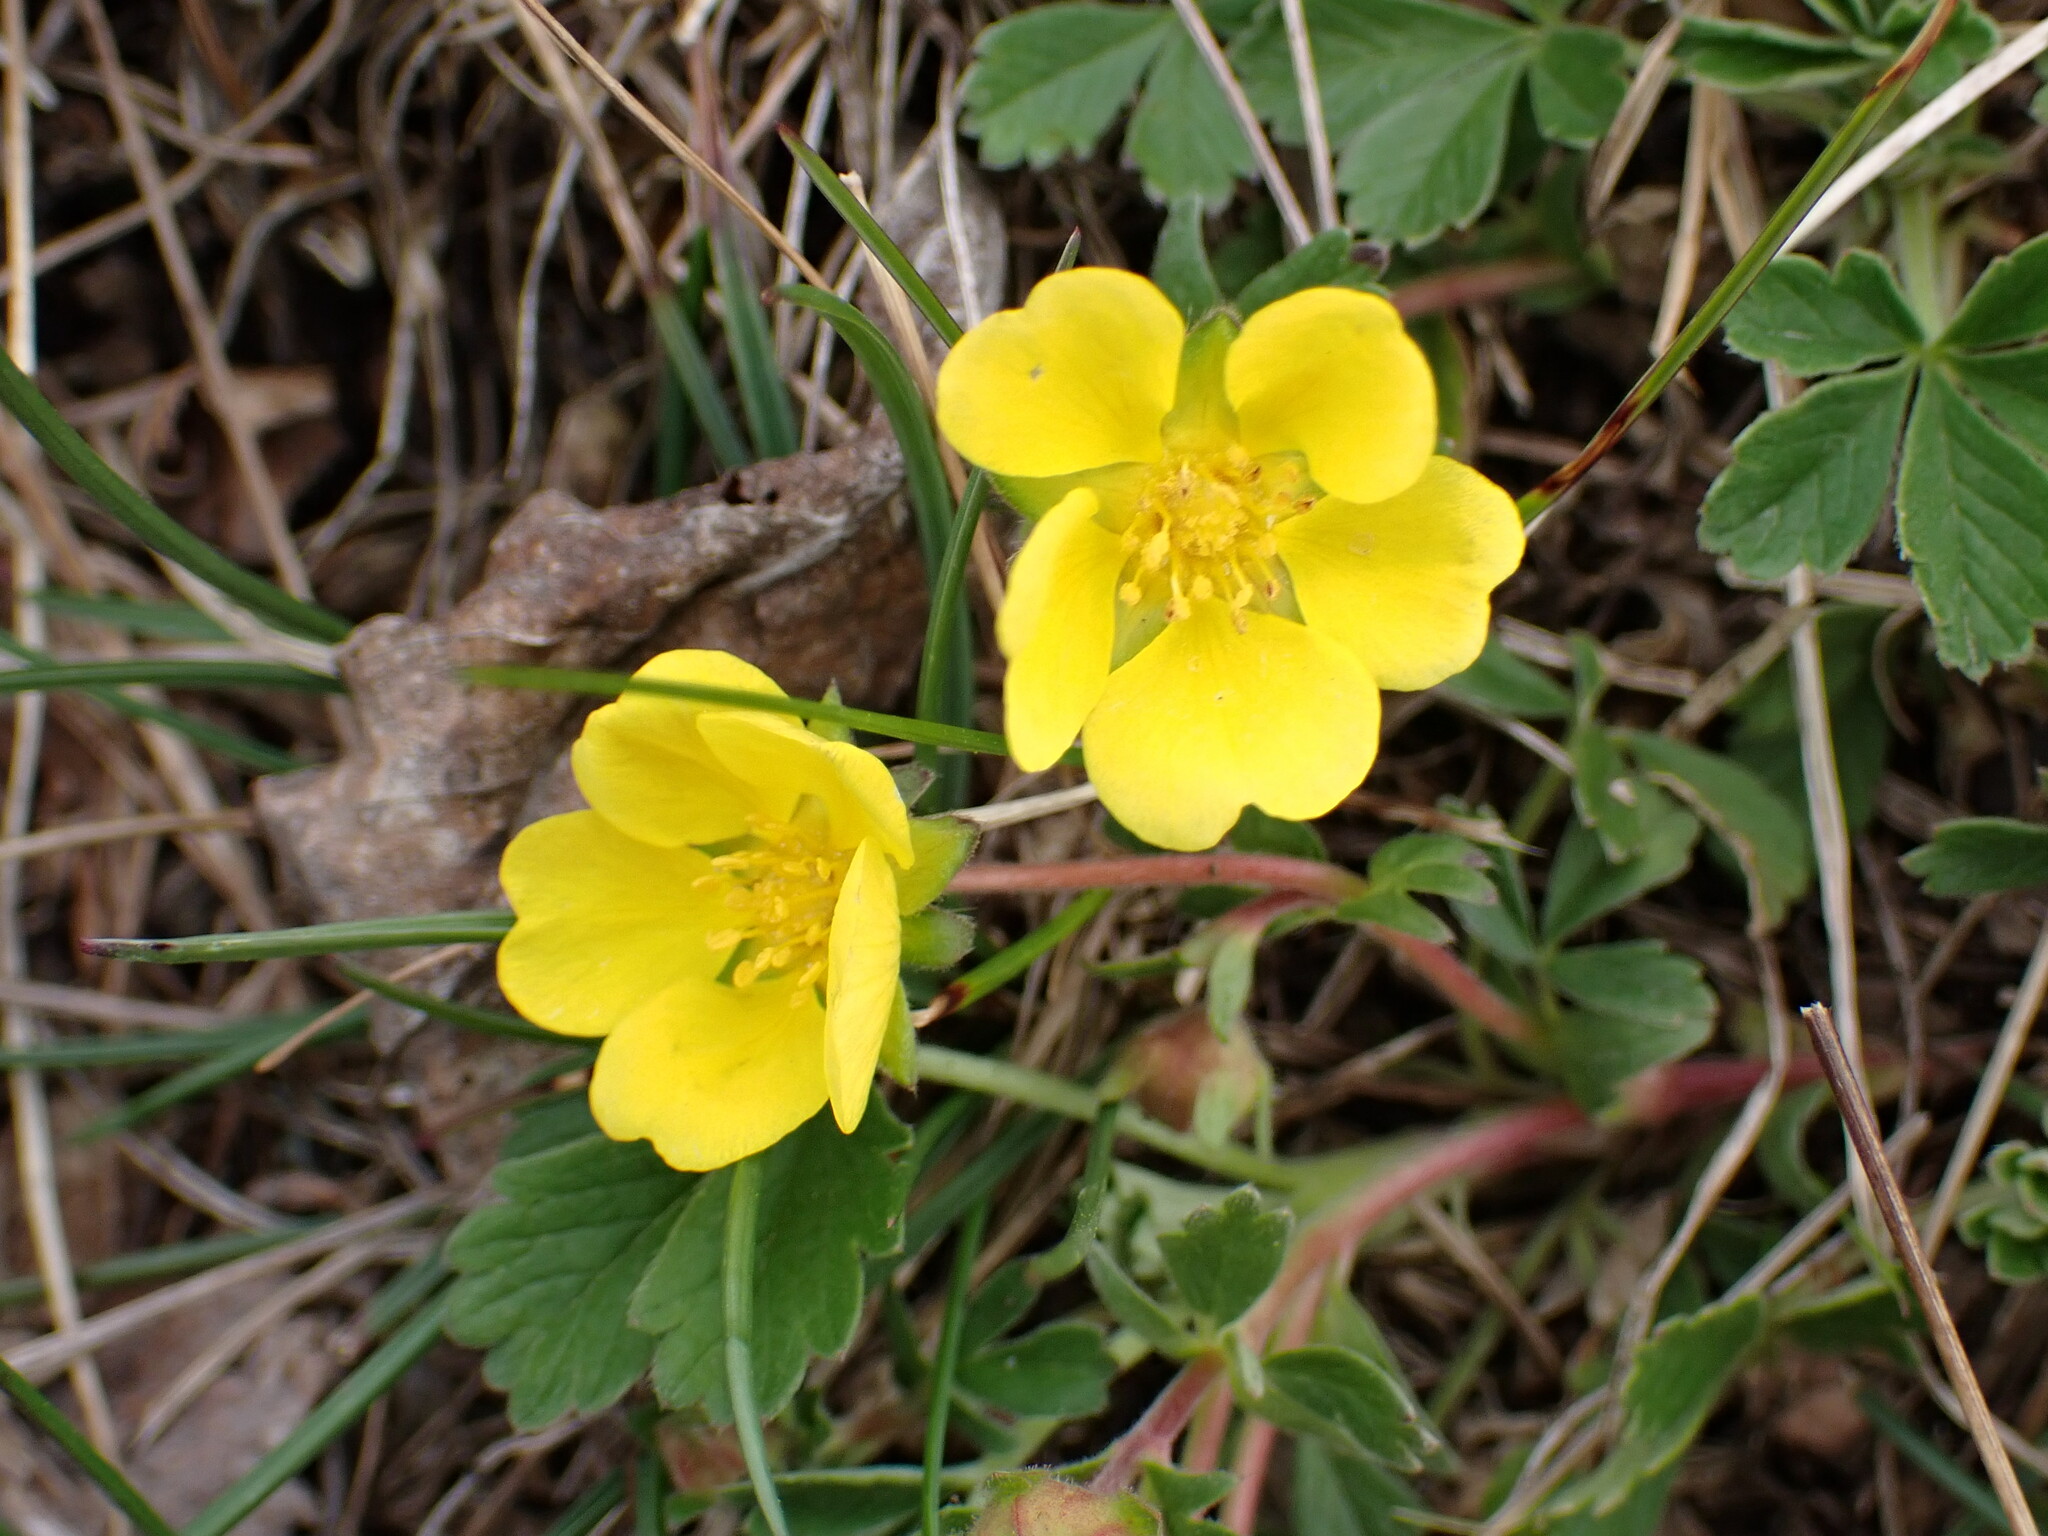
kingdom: Plantae
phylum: Tracheophyta
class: Magnoliopsida
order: Rosales
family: Rosaceae
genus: Potentilla
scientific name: Potentilla incana
